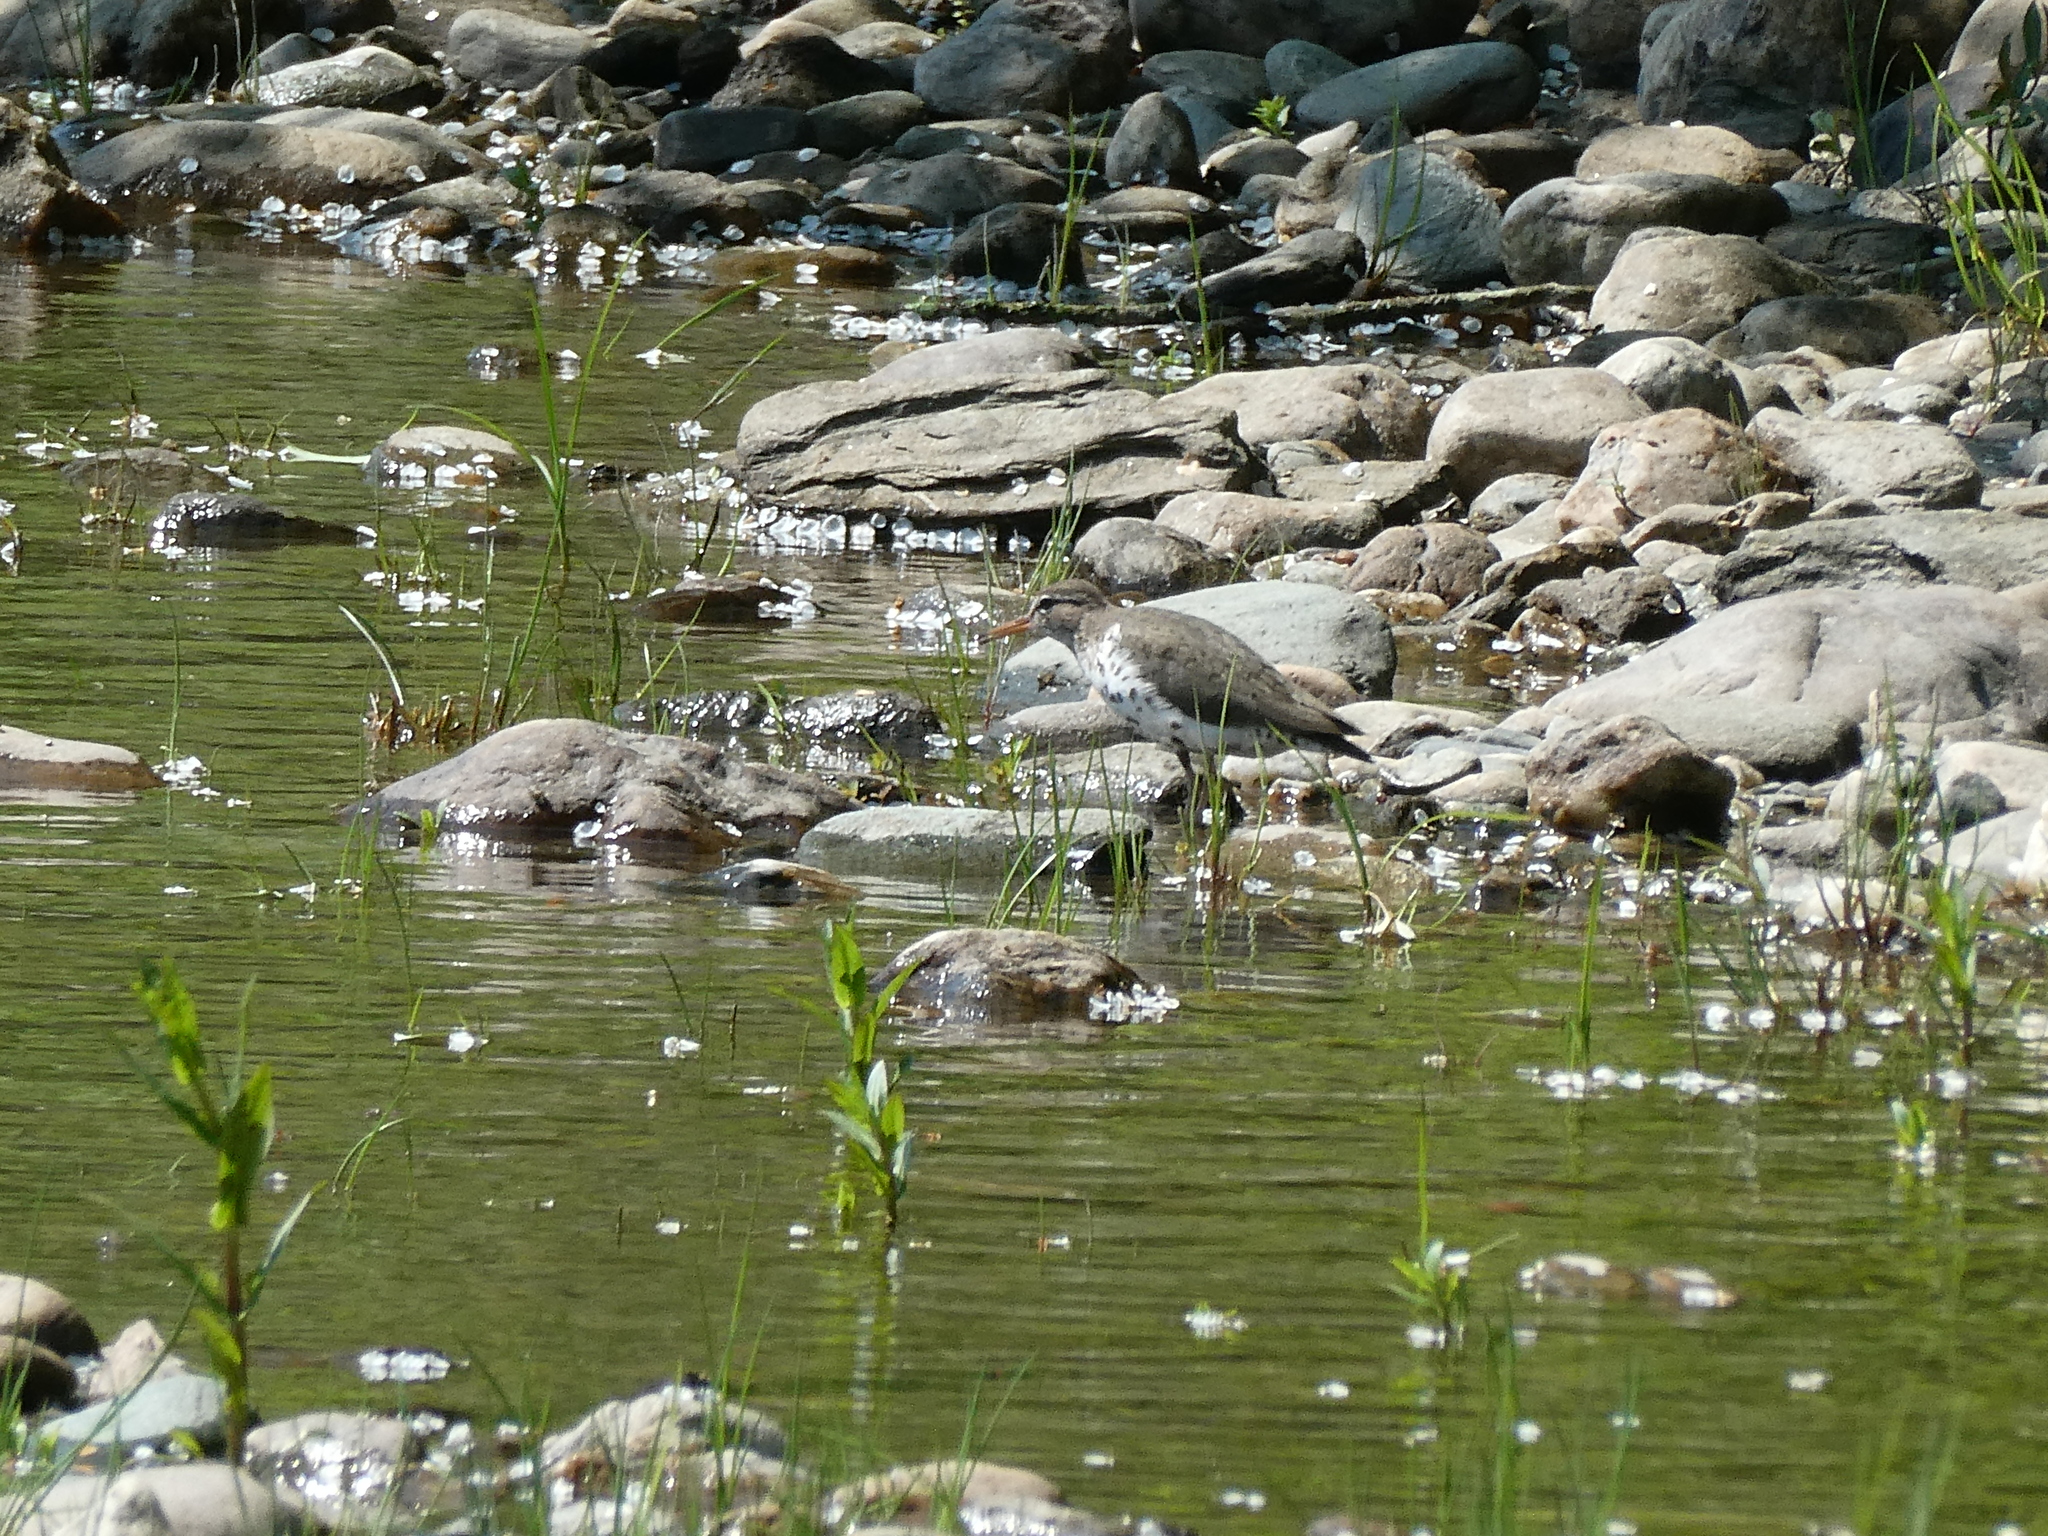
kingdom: Animalia
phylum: Chordata
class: Aves
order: Charadriiformes
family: Scolopacidae
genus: Actitis
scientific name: Actitis macularius
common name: Spotted sandpiper
